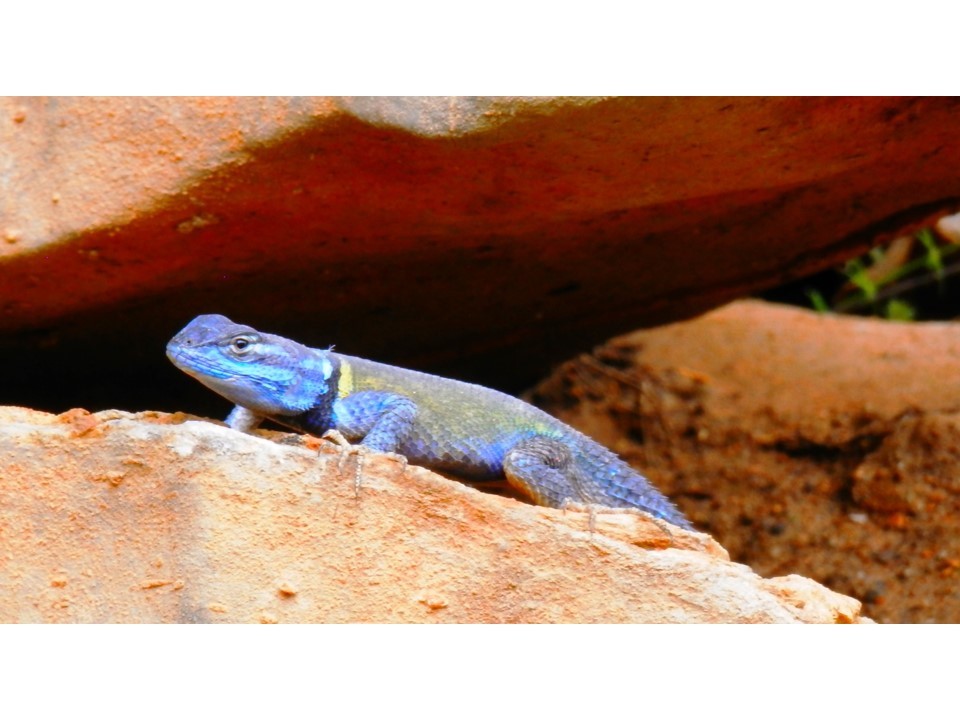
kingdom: Animalia
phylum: Chordata
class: Squamata
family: Phrynosomatidae
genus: Sceloporus
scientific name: Sceloporus minor
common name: Minor lizard
